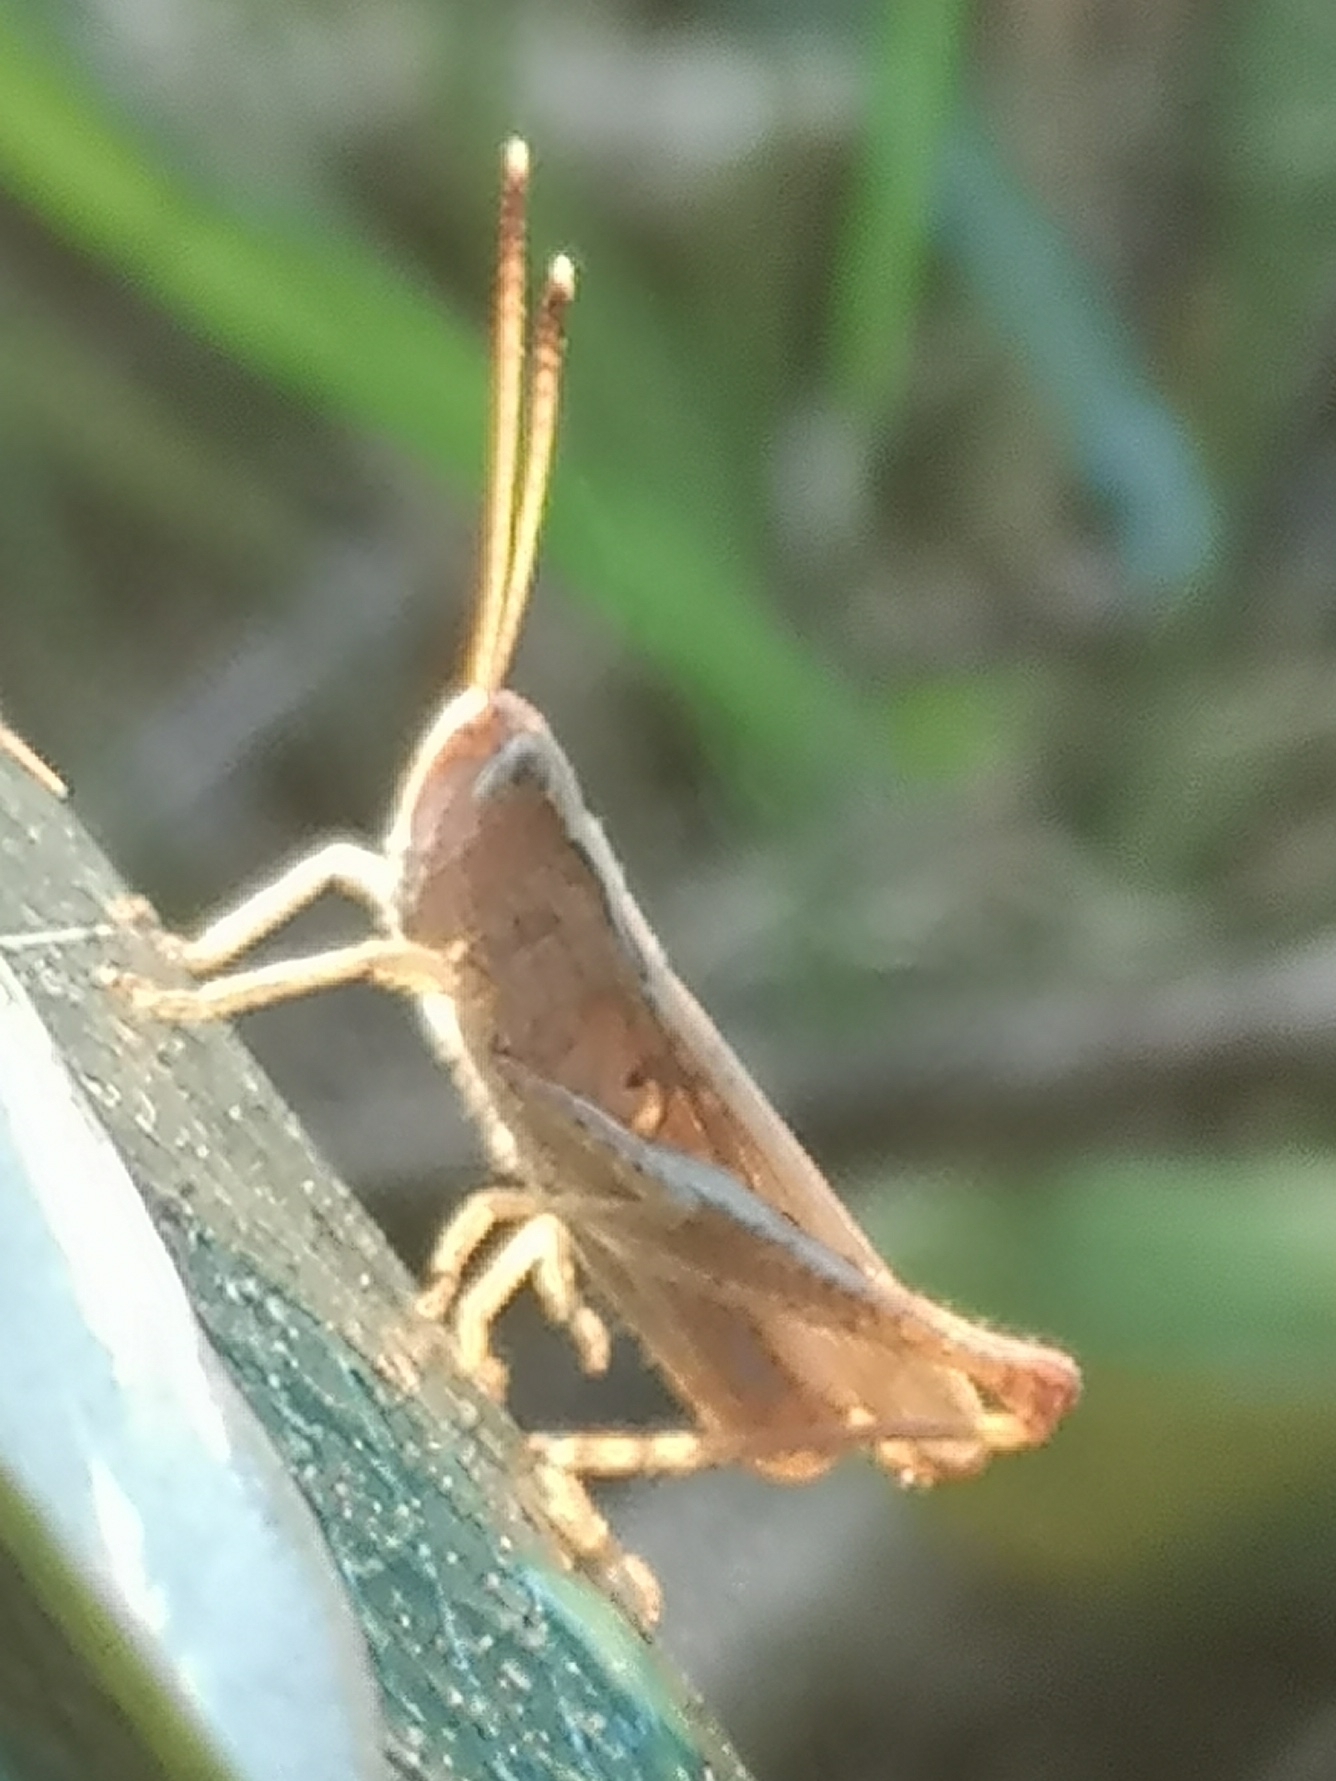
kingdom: Animalia
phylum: Arthropoda
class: Insecta
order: Orthoptera
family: Acrididae
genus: Gomphocerippus
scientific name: Gomphocerippus rufus
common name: Rufous grasshopper
